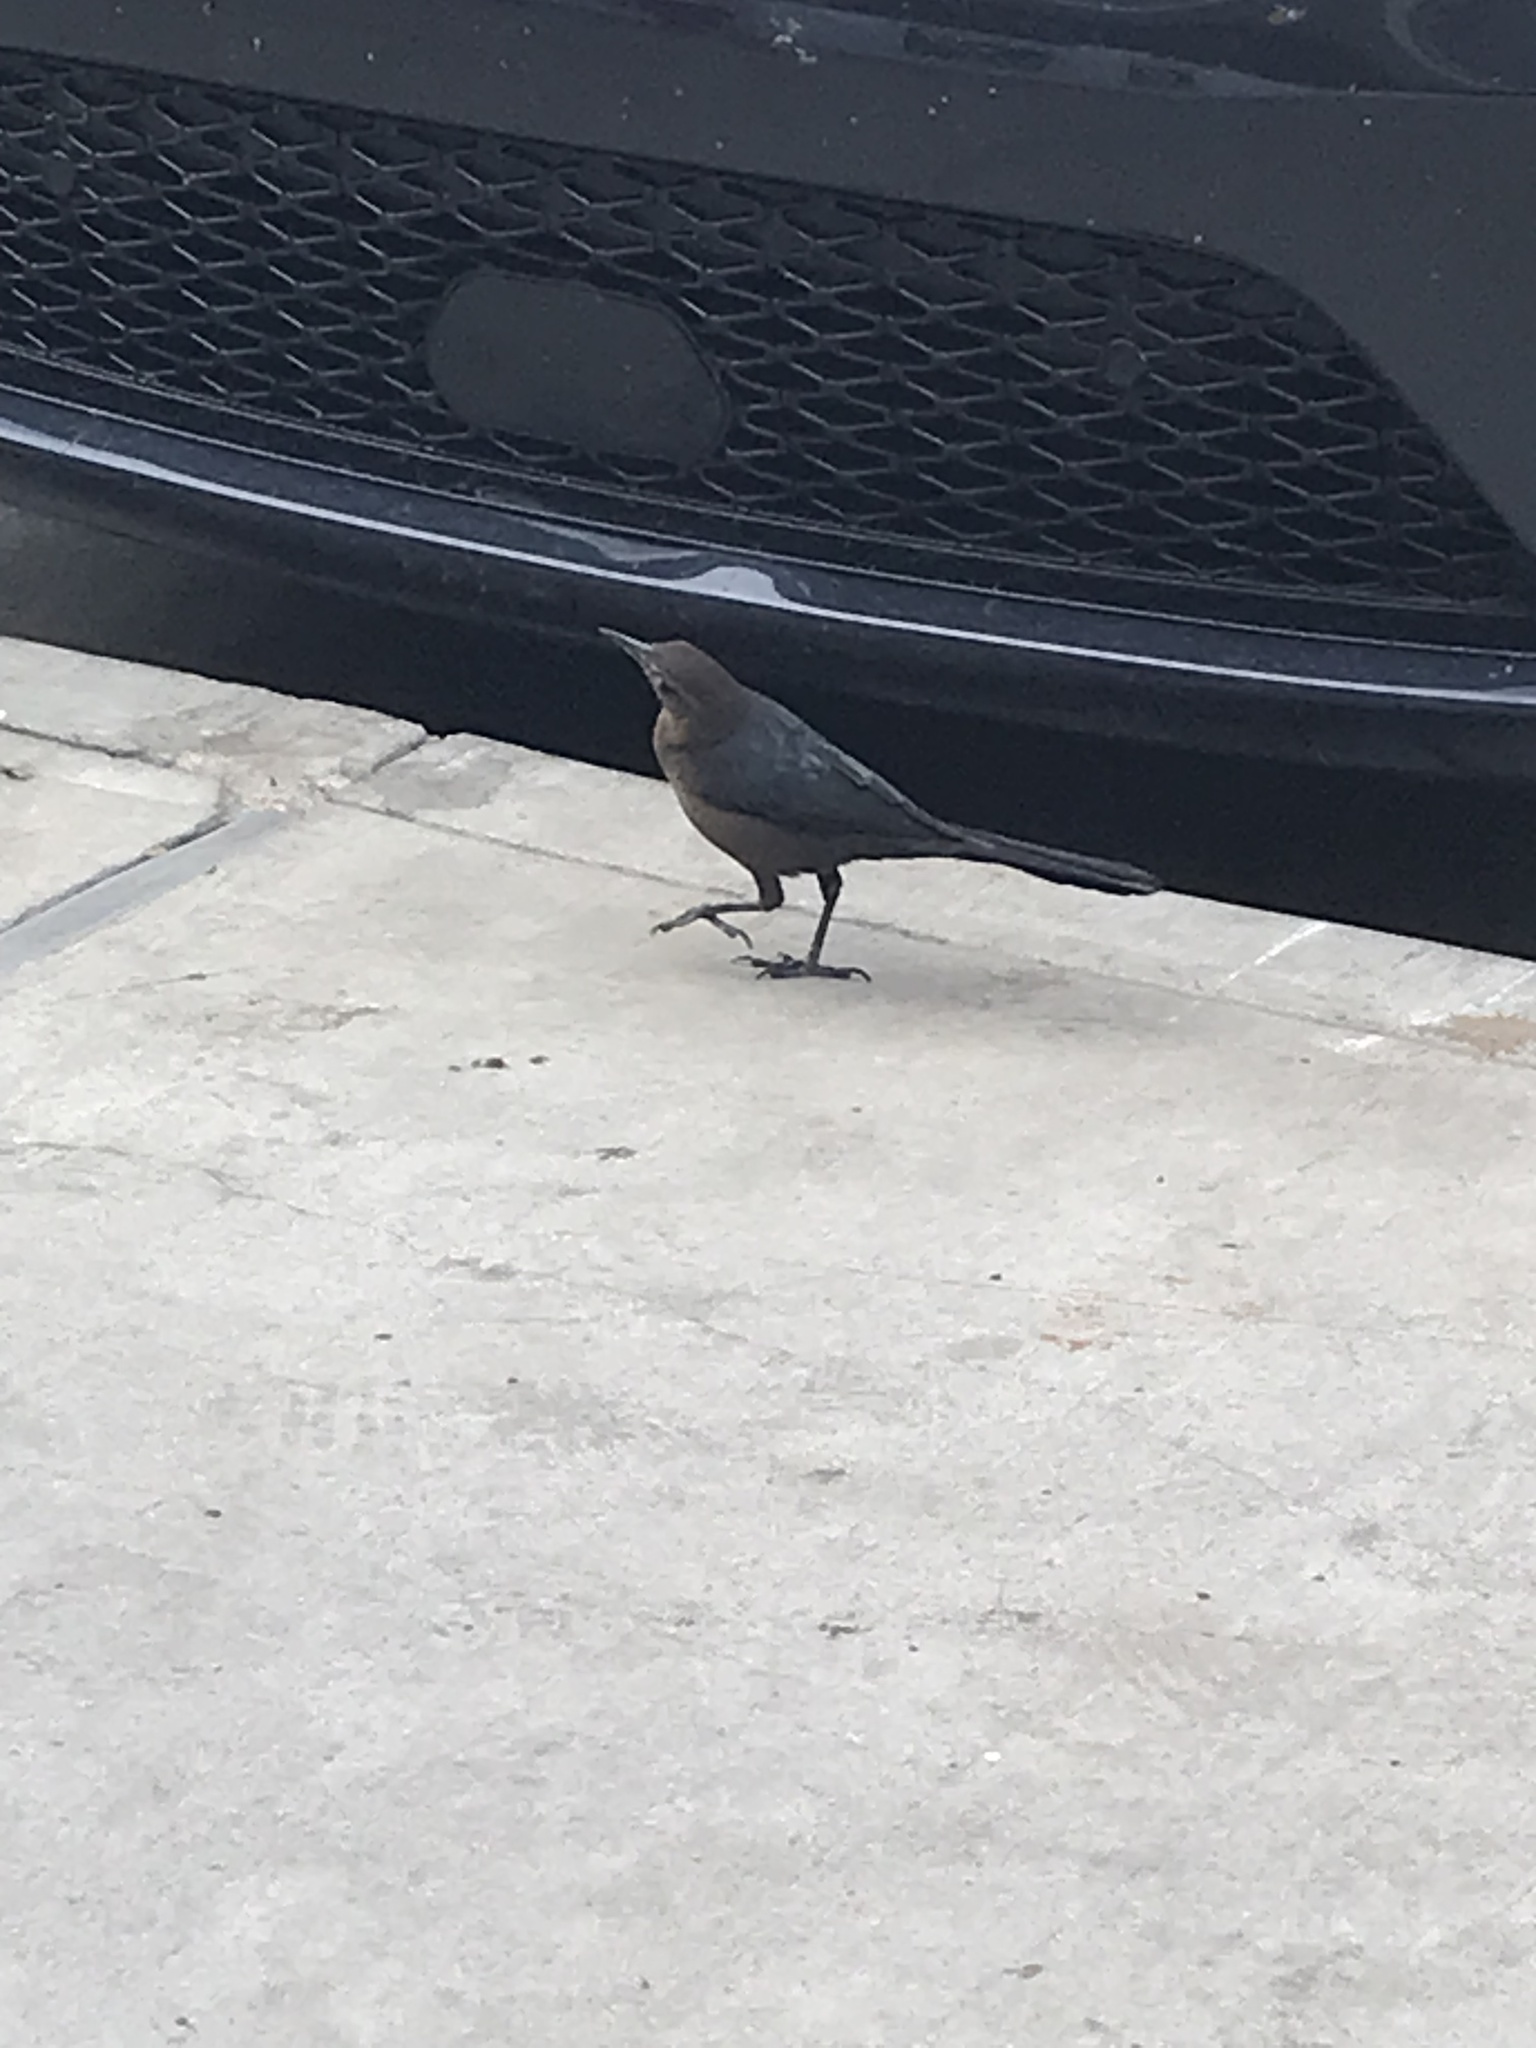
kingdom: Animalia
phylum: Chordata
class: Aves
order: Passeriformes
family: Icteridae
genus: Quiscalus
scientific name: Quiscalus mexicanus
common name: Great-tailed grackle
